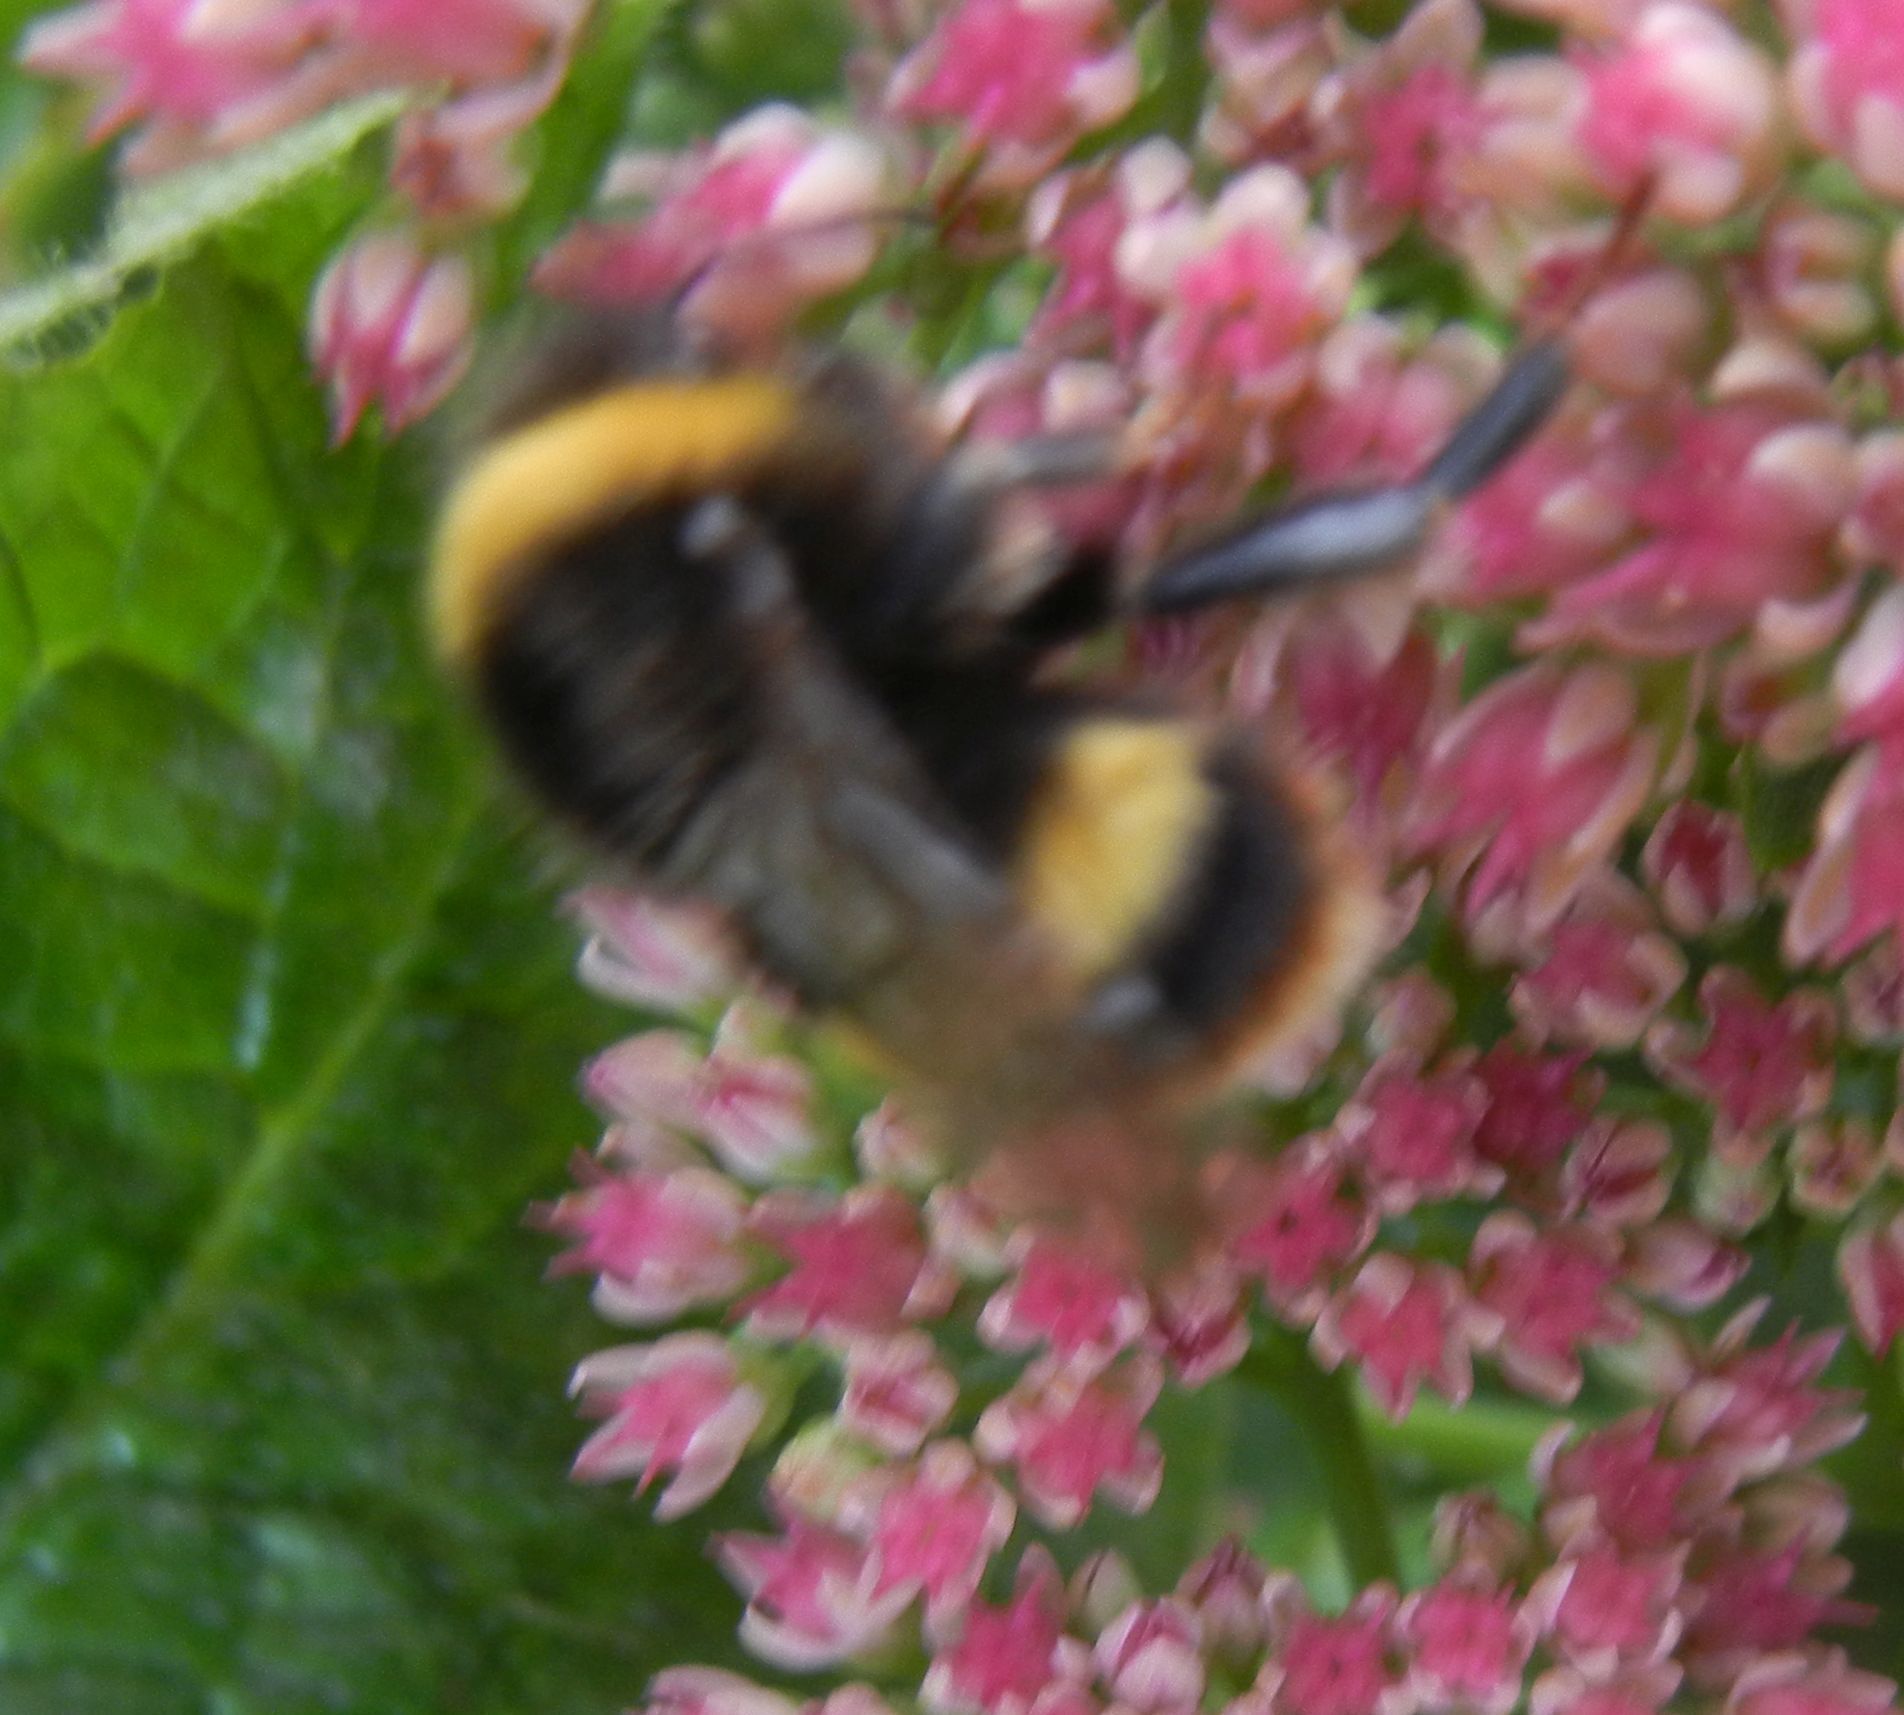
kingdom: Animalia
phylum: Arthropoda
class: Insecta
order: Hymenoptera
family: Apidae
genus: Bombus
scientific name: Bombus terrestris
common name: Buff-tailed bumblebee
